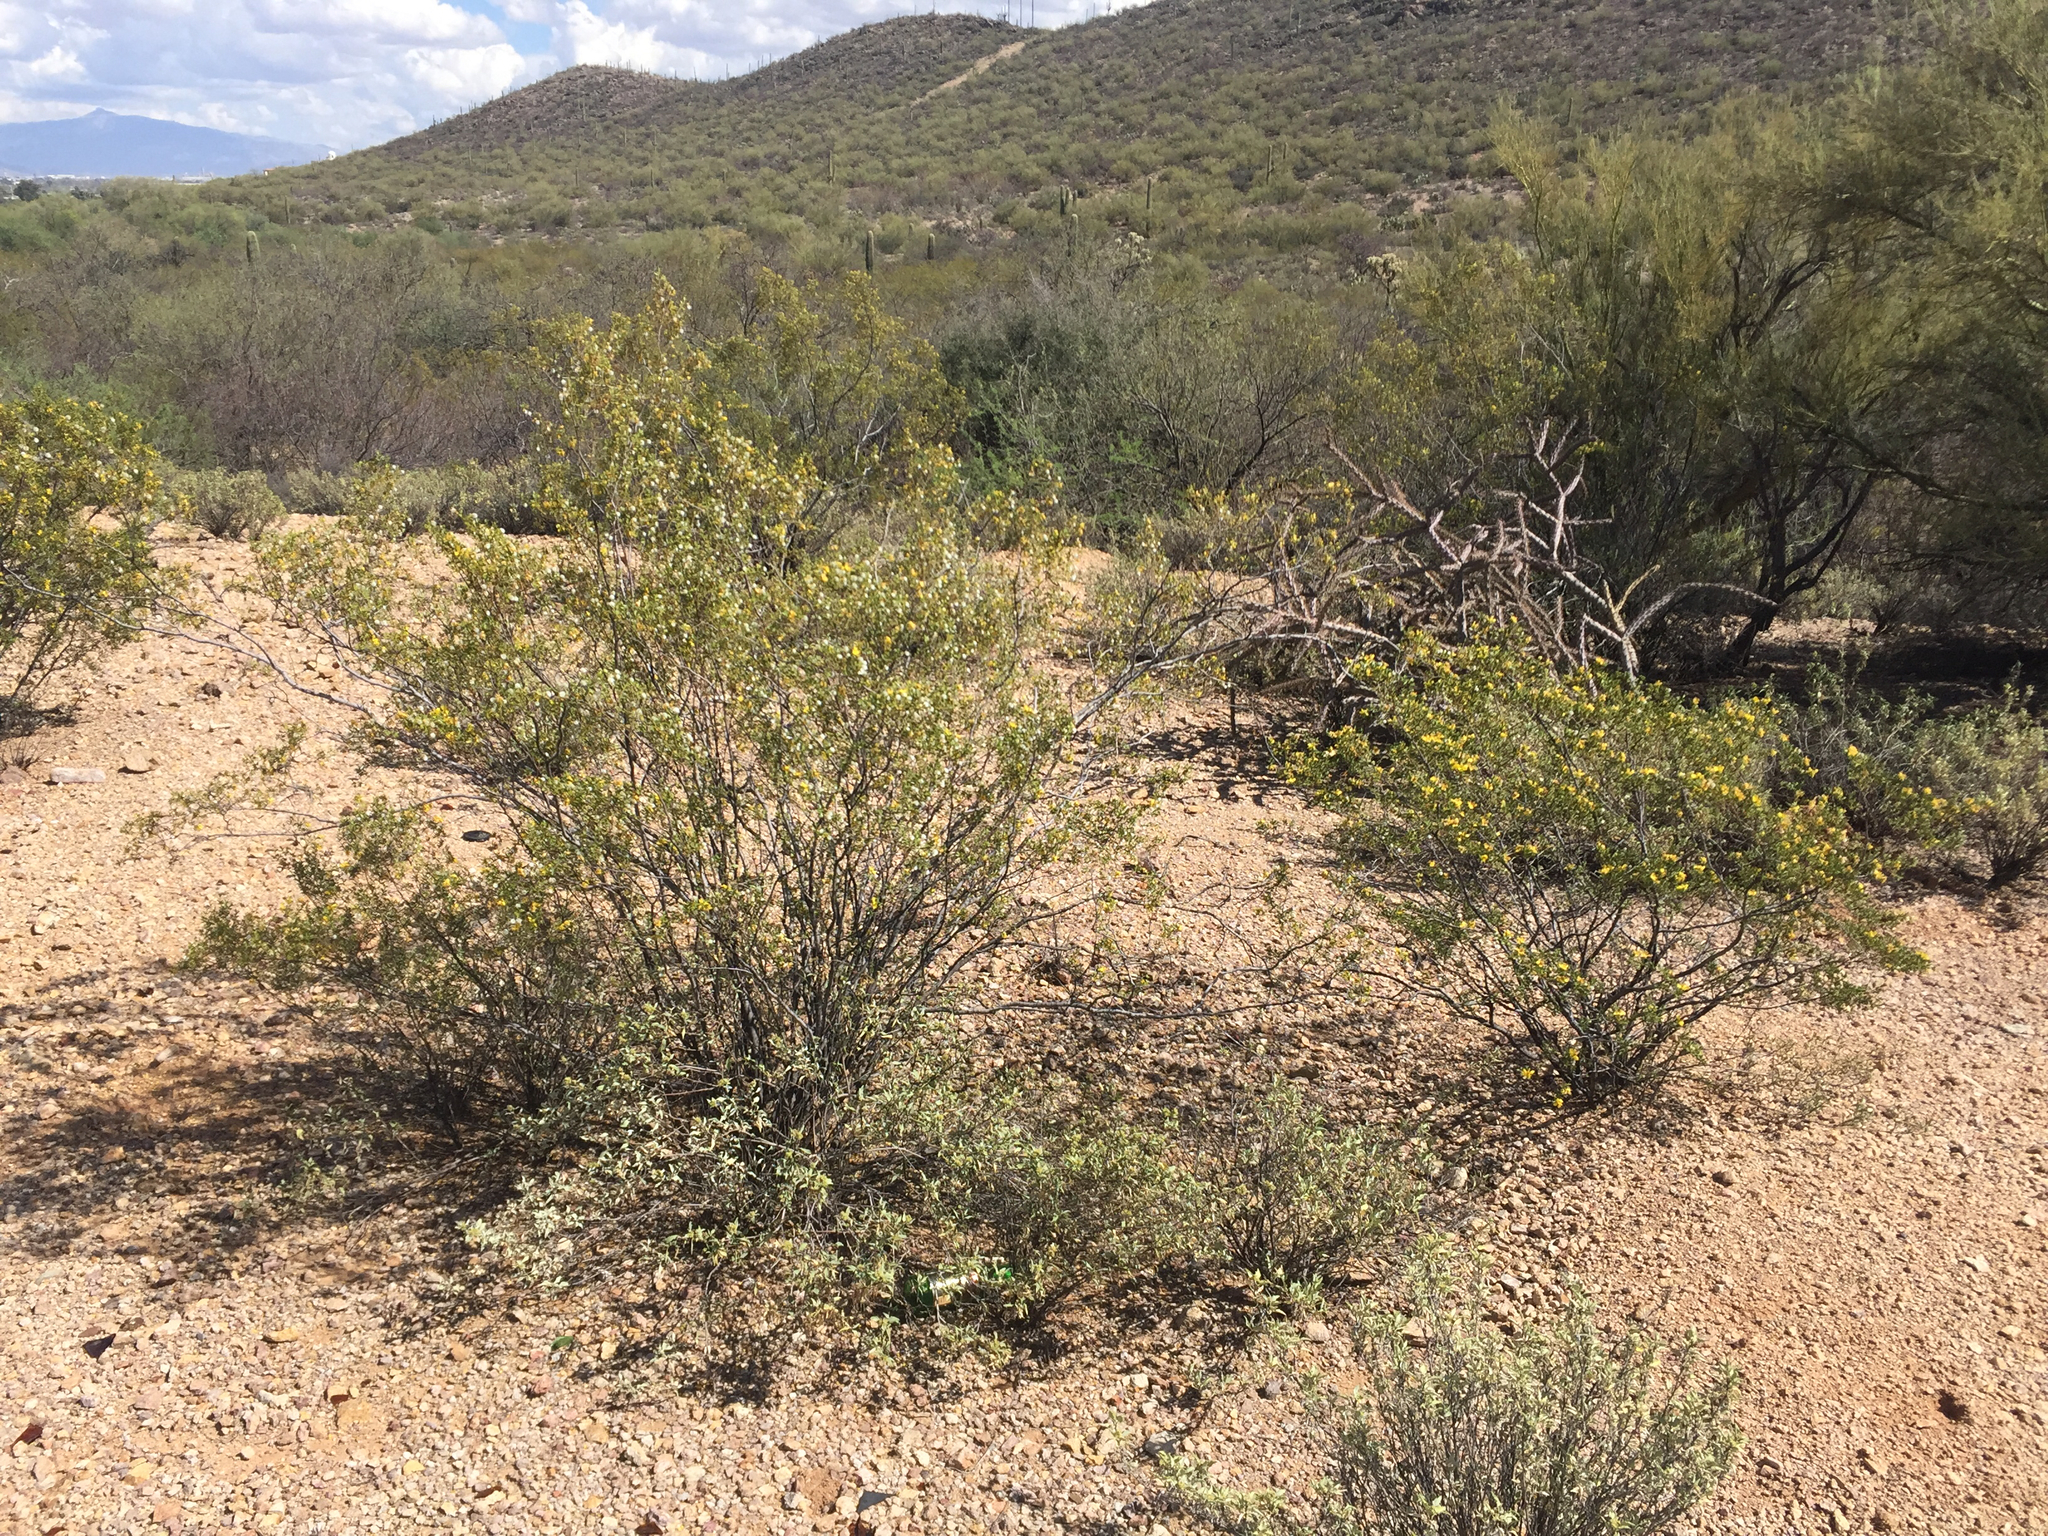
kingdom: Plantae
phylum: Tracheophyta
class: Magnoliopsida
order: Zygophyllales
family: Zygophyllaceae
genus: Larrea
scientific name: Larrea tridentata
